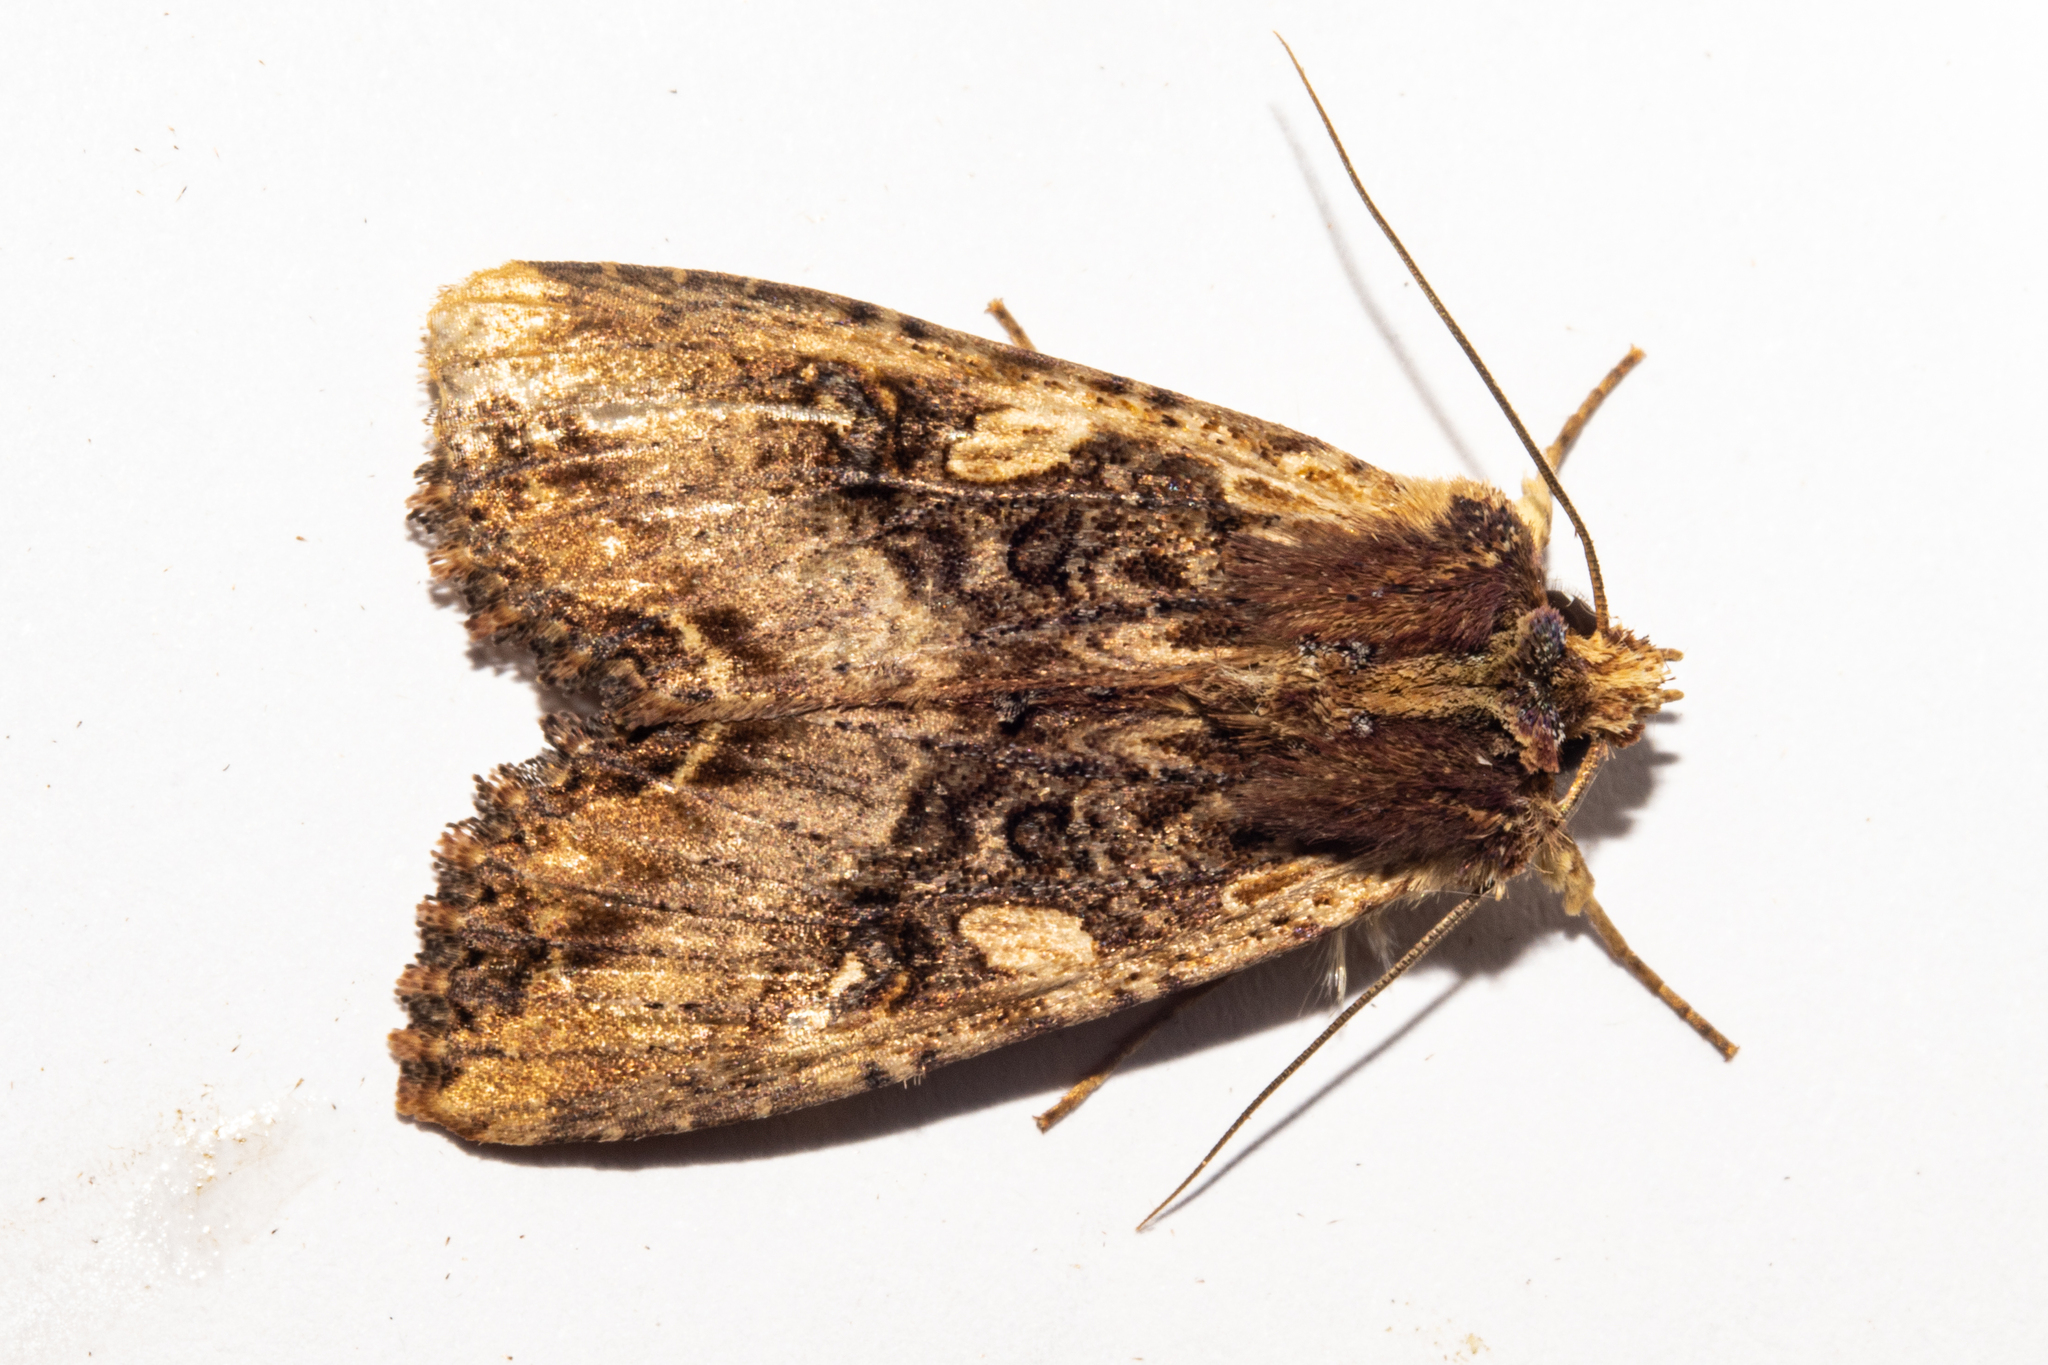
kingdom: Animalia
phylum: Arthropoda
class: Insecta
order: Lepidoptera
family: Noctuidae
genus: Meterana
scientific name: Meterana stipata
